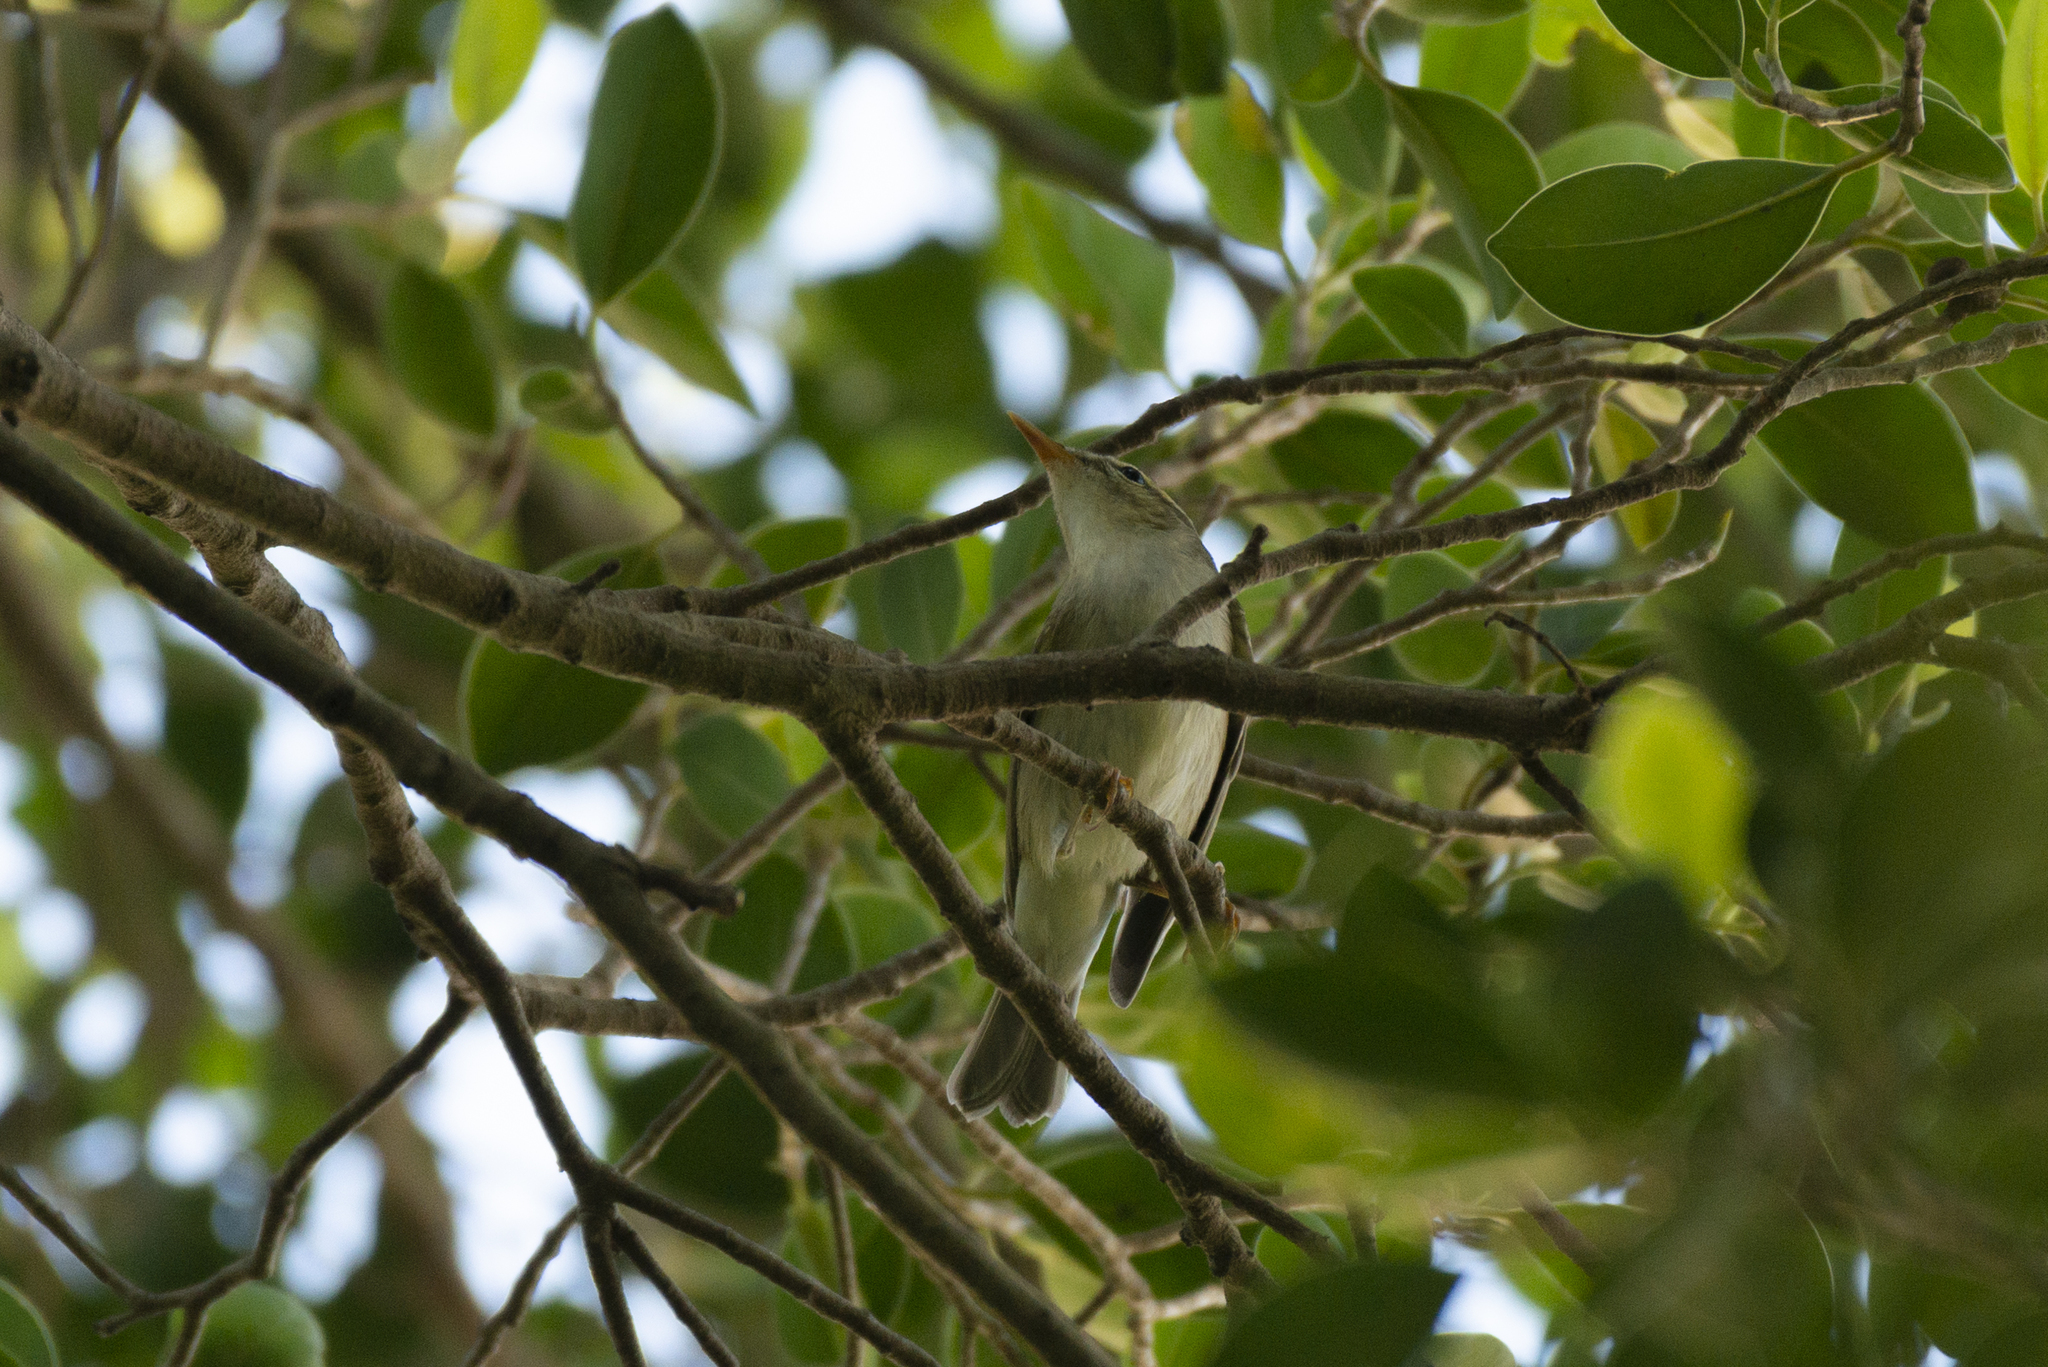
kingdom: Animalia
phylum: Chordata
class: Aves
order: Passeriformes
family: Phylloscopidae
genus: Phylloscopus
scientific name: Phylloscopus borealis
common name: Arctic warbler
